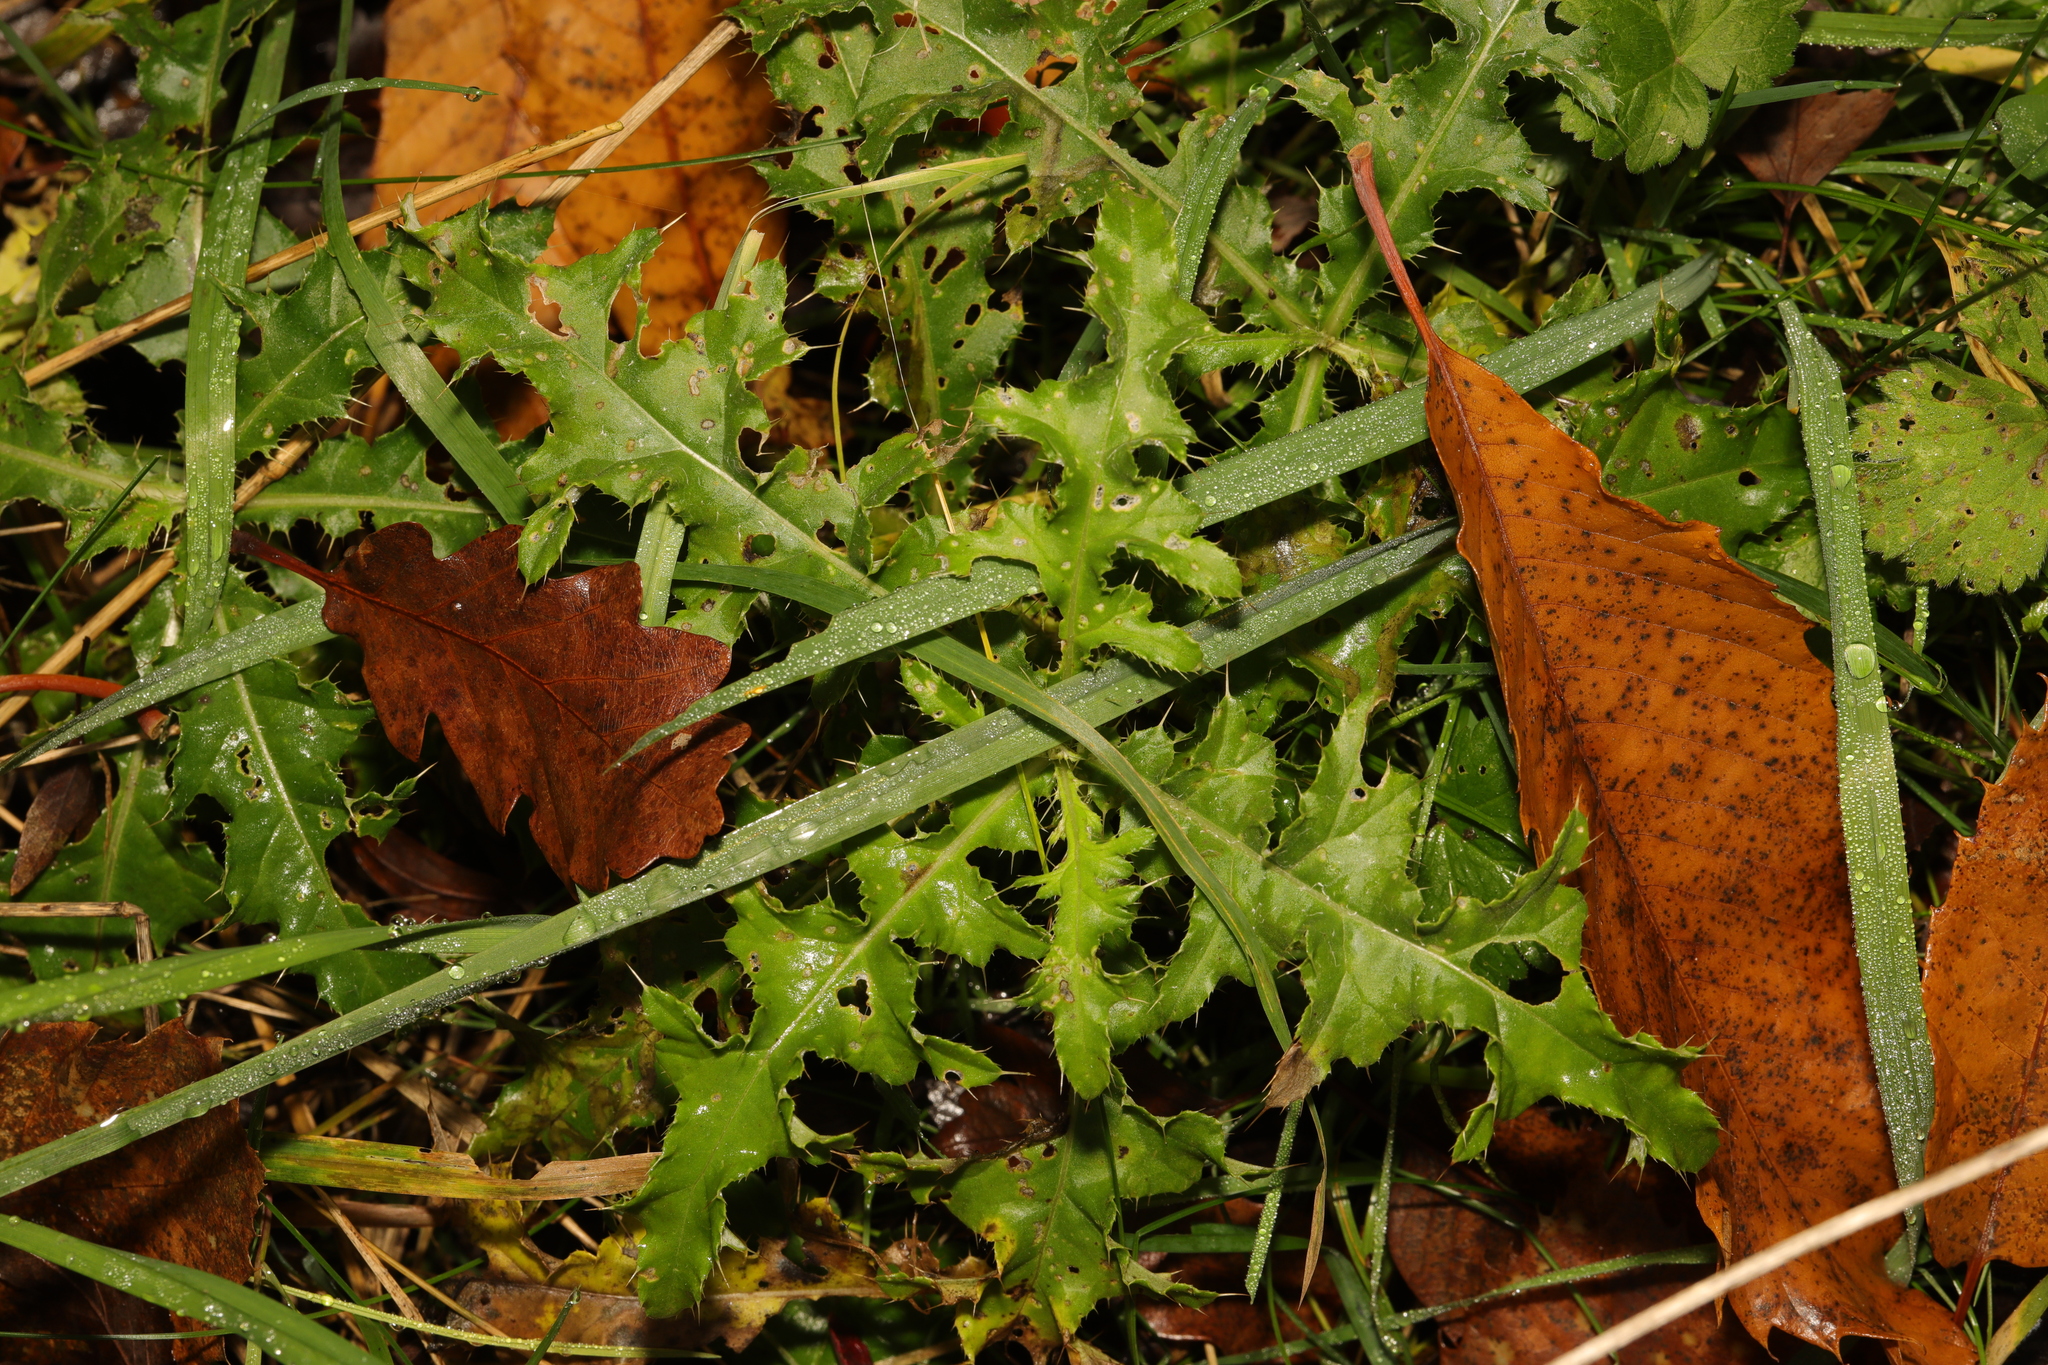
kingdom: Plantae
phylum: Tracheophyta
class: Magnoliopsida
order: Asterales
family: Asteraceae
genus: Cirsium
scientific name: Cirsium arvense
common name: Creeping thistle
